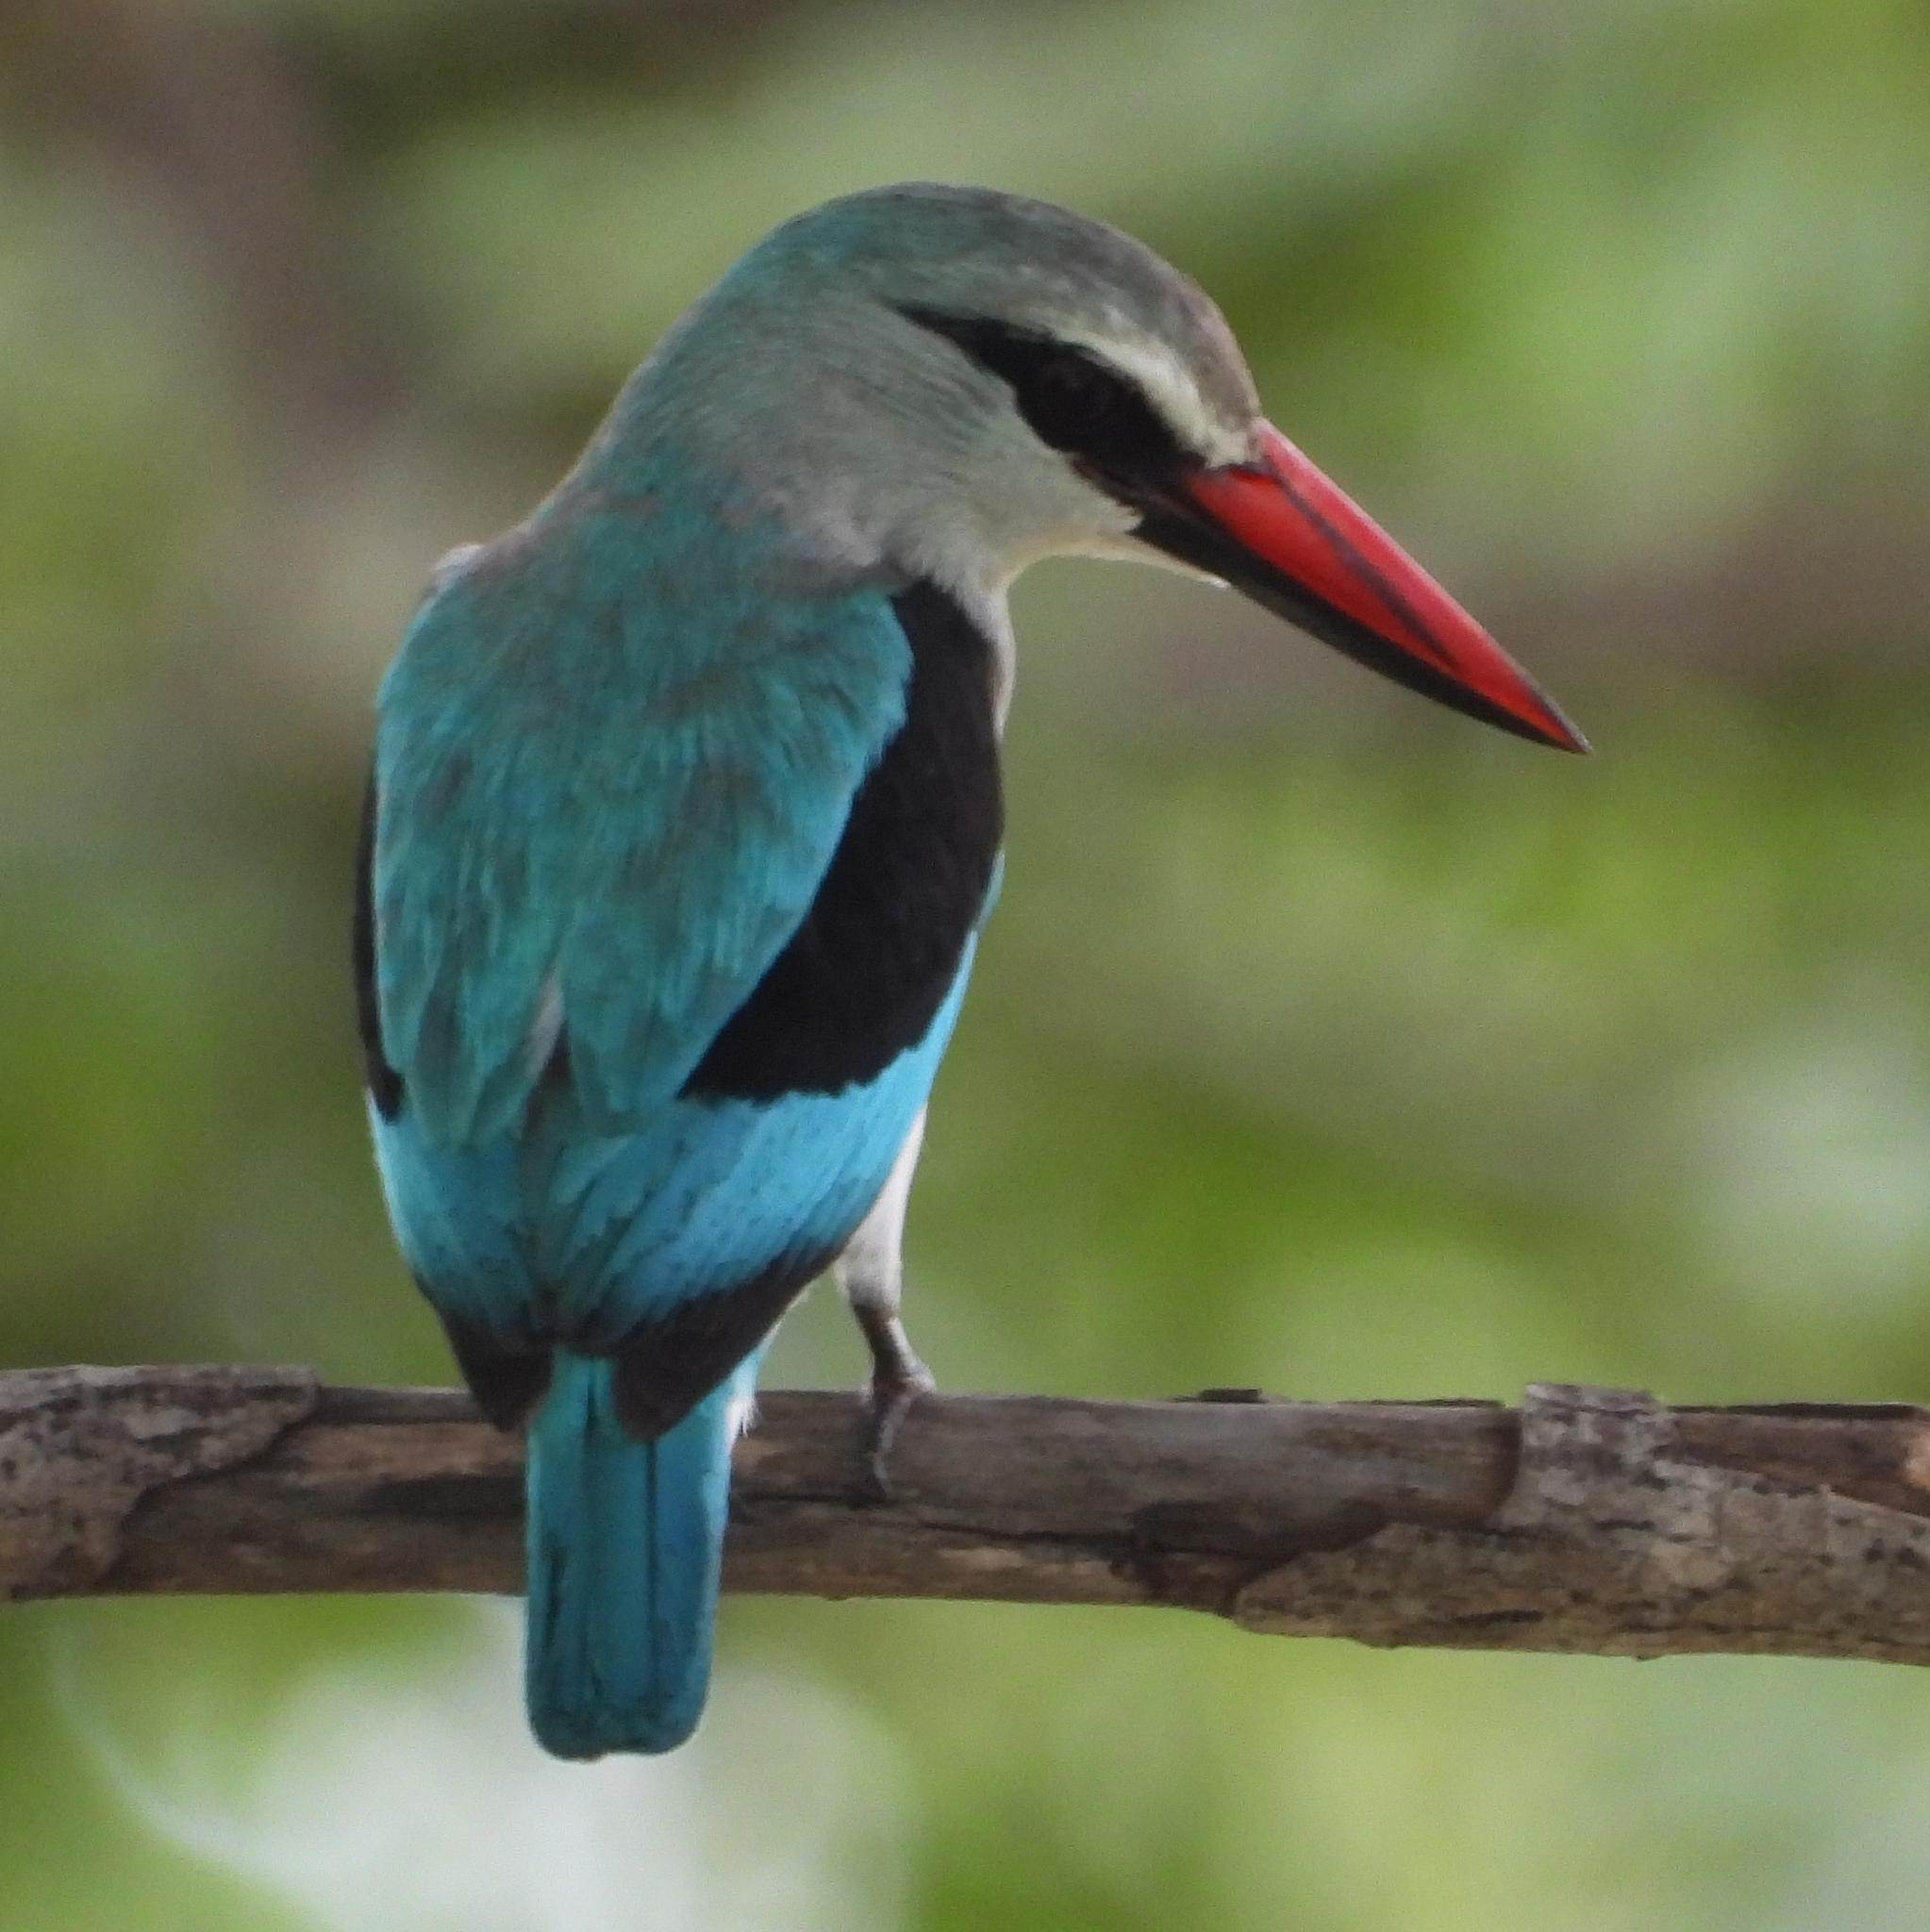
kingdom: Animalia
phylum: Chordata
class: Aves
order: Coraciiformes
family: Alcedinidae
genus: Halcyon
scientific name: Halcyon senegalensis
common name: Woodland kingfisher
